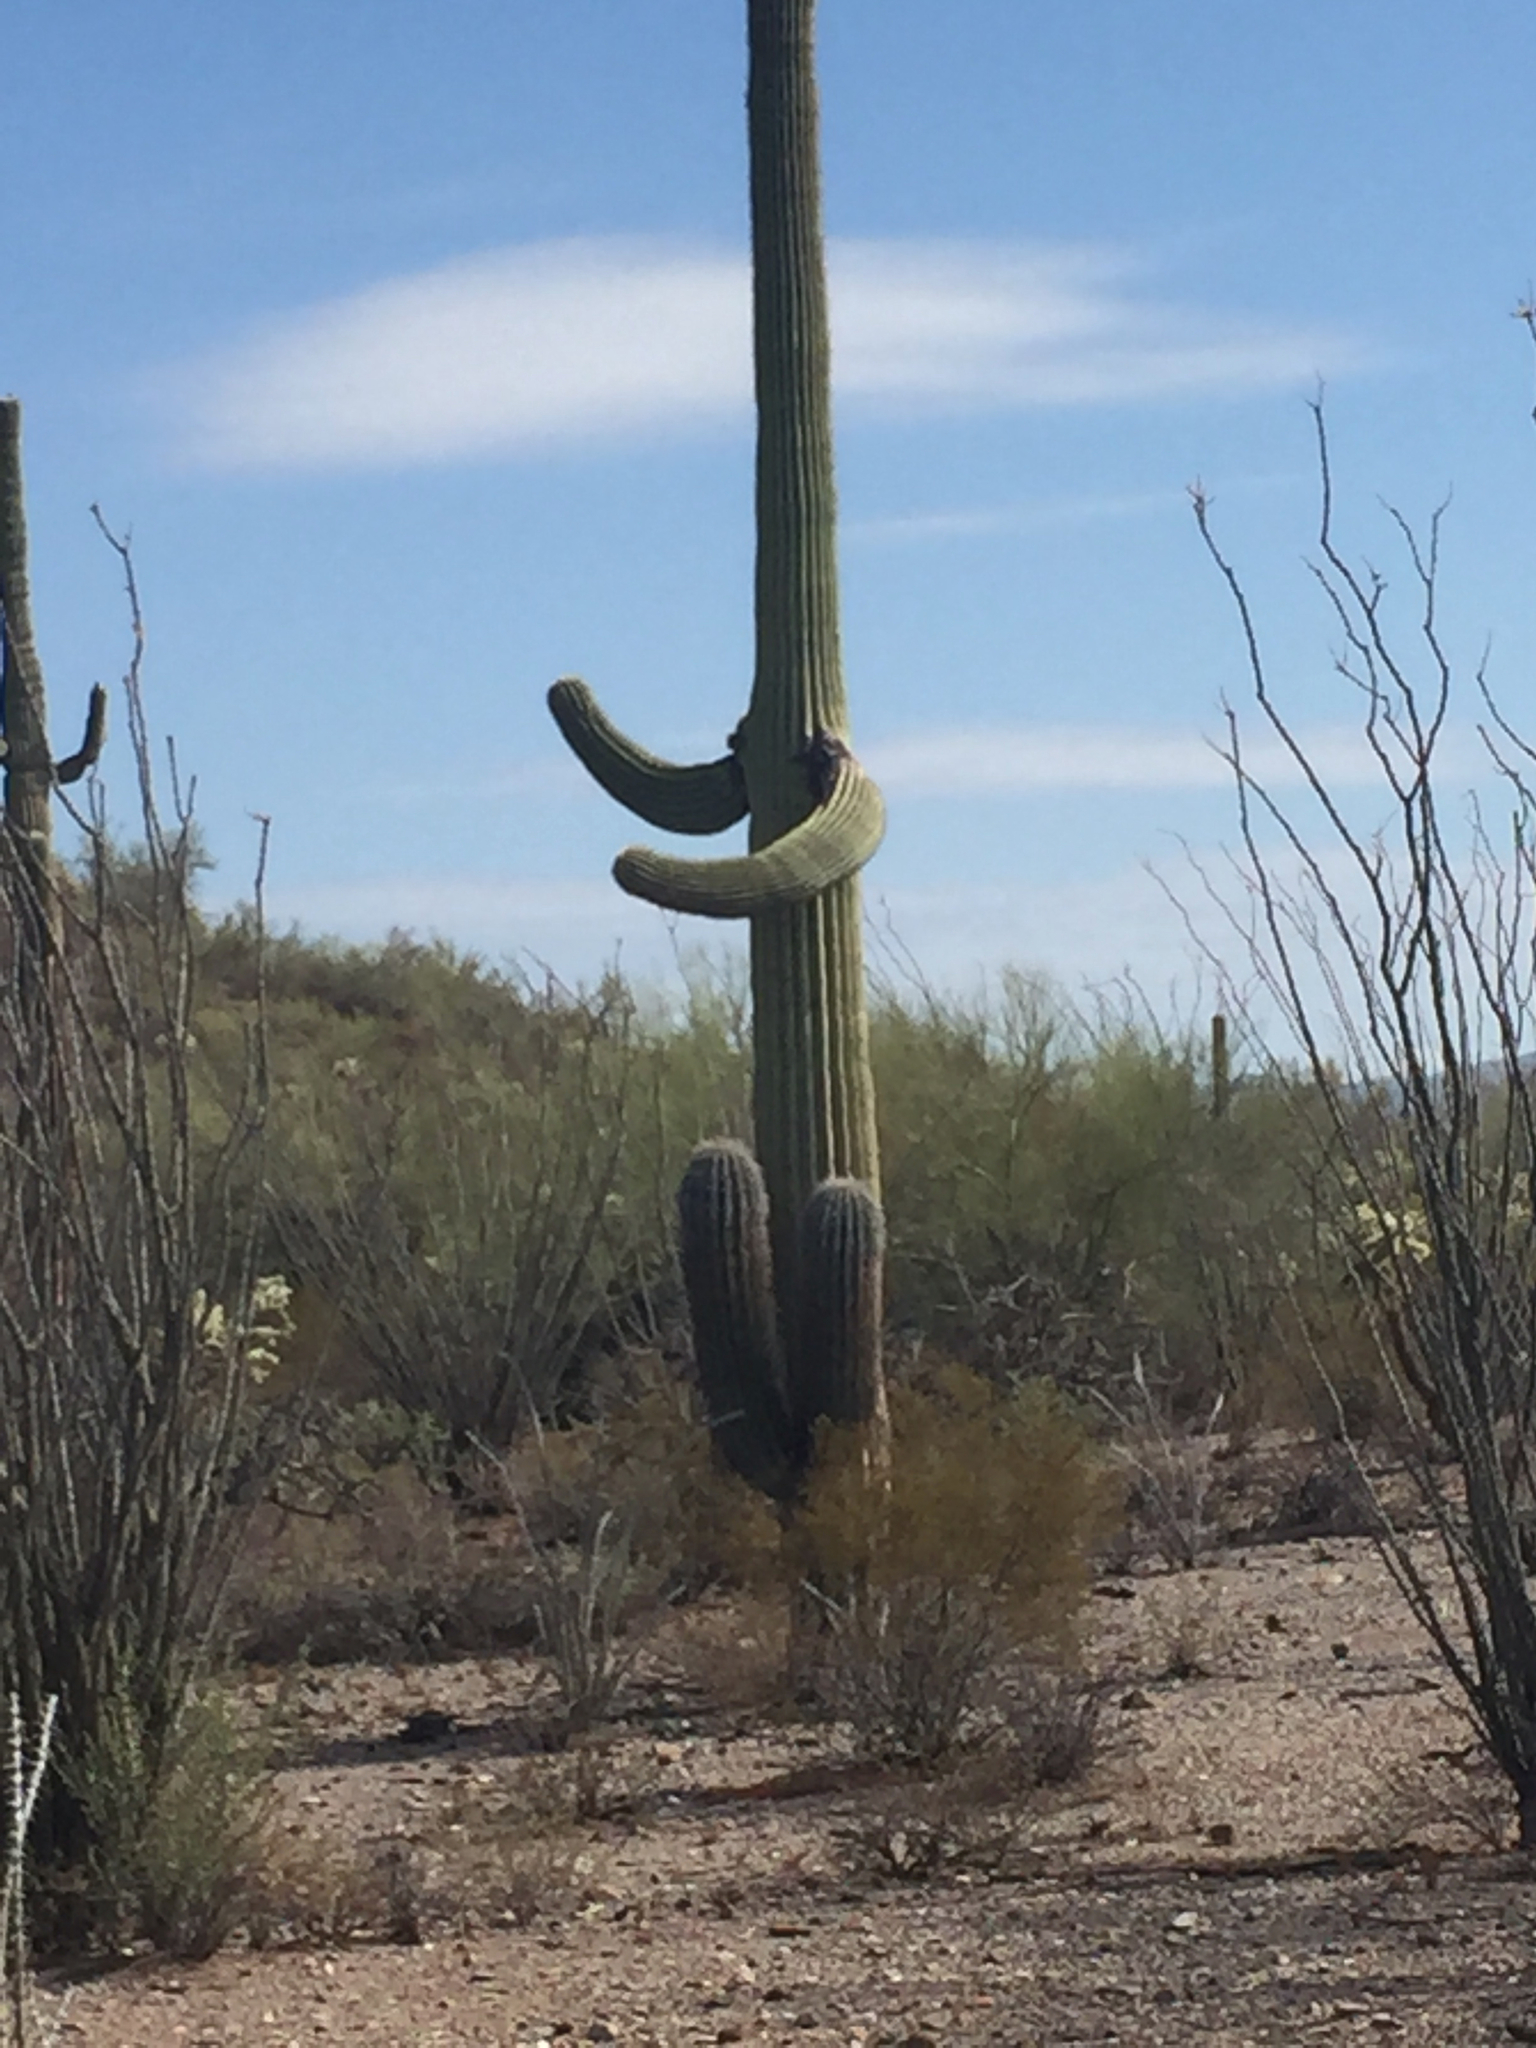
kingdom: Plantae
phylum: Tracheophyta
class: Magnoliopsida
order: Caryophyllales
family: Cactaceae
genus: Carnegiea
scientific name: Carnegiea gigantea
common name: Saguaro
